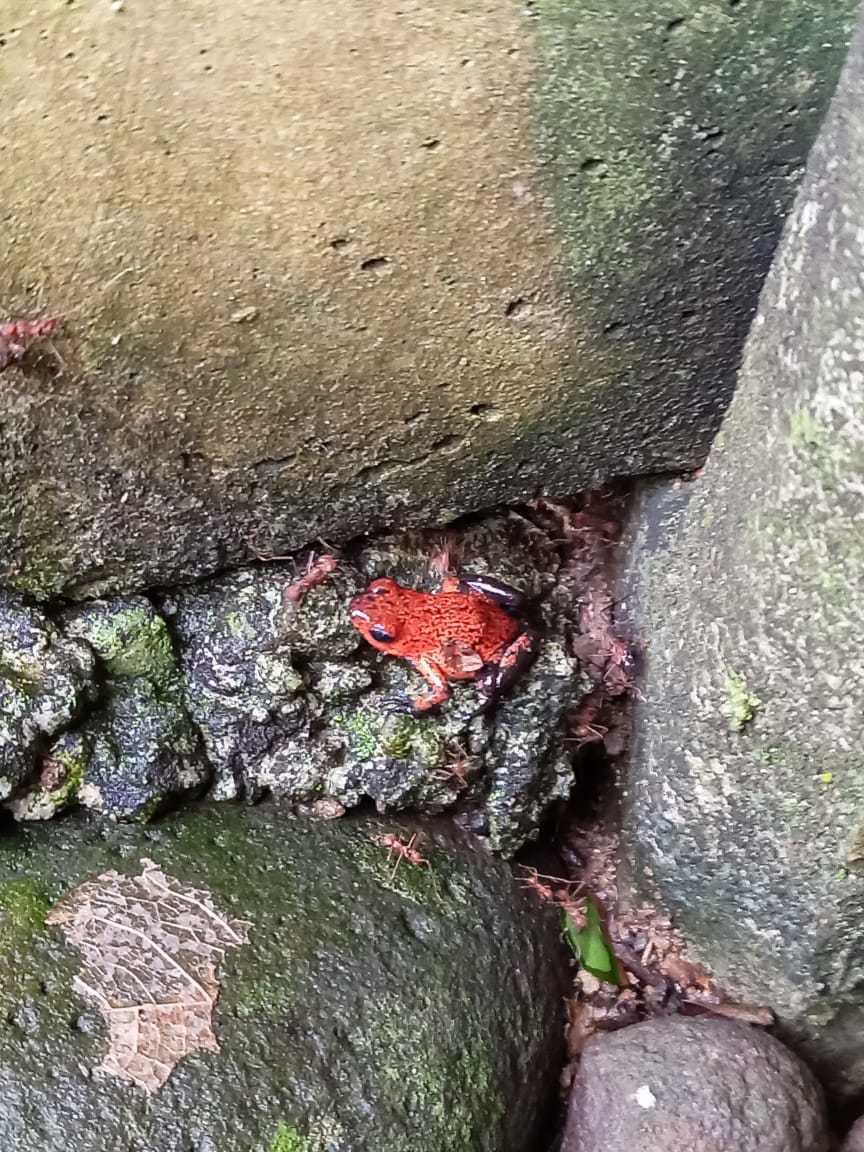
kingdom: Animalia
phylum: Chordata
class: Amphibia
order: Anura
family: Dendrobatidae
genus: Oophaga
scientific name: Oophaga pumilio
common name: Flaming poison frog
